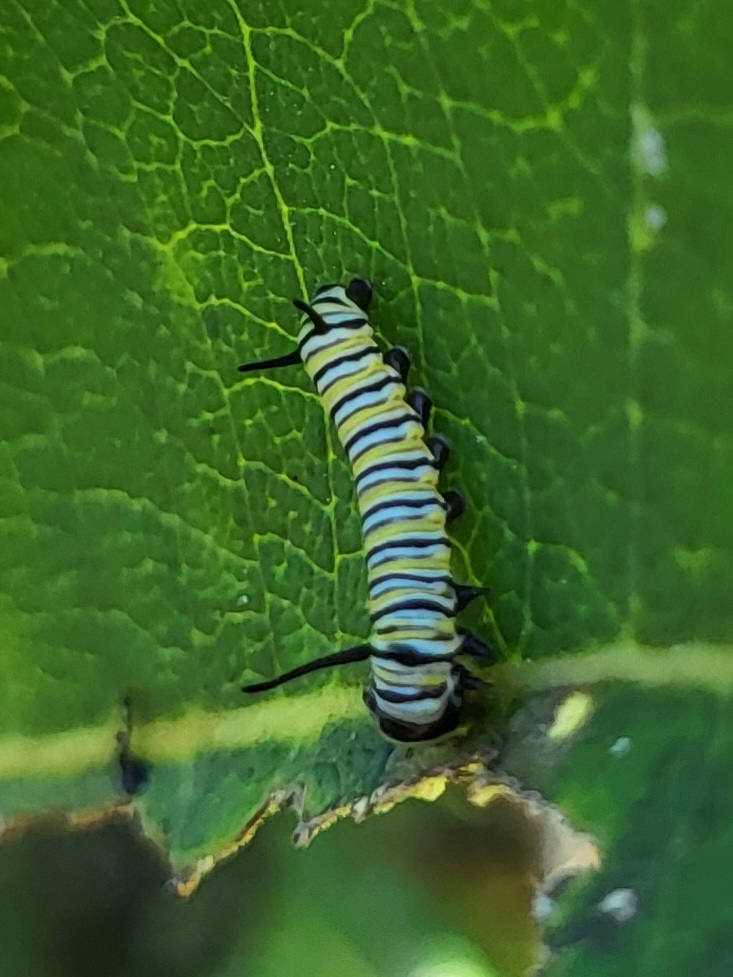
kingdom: Animalia
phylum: Arthropoda
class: Insecta
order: Lepidoptera
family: Nymphalidae
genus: Danaus
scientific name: Danaus plexippus
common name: Monarch
